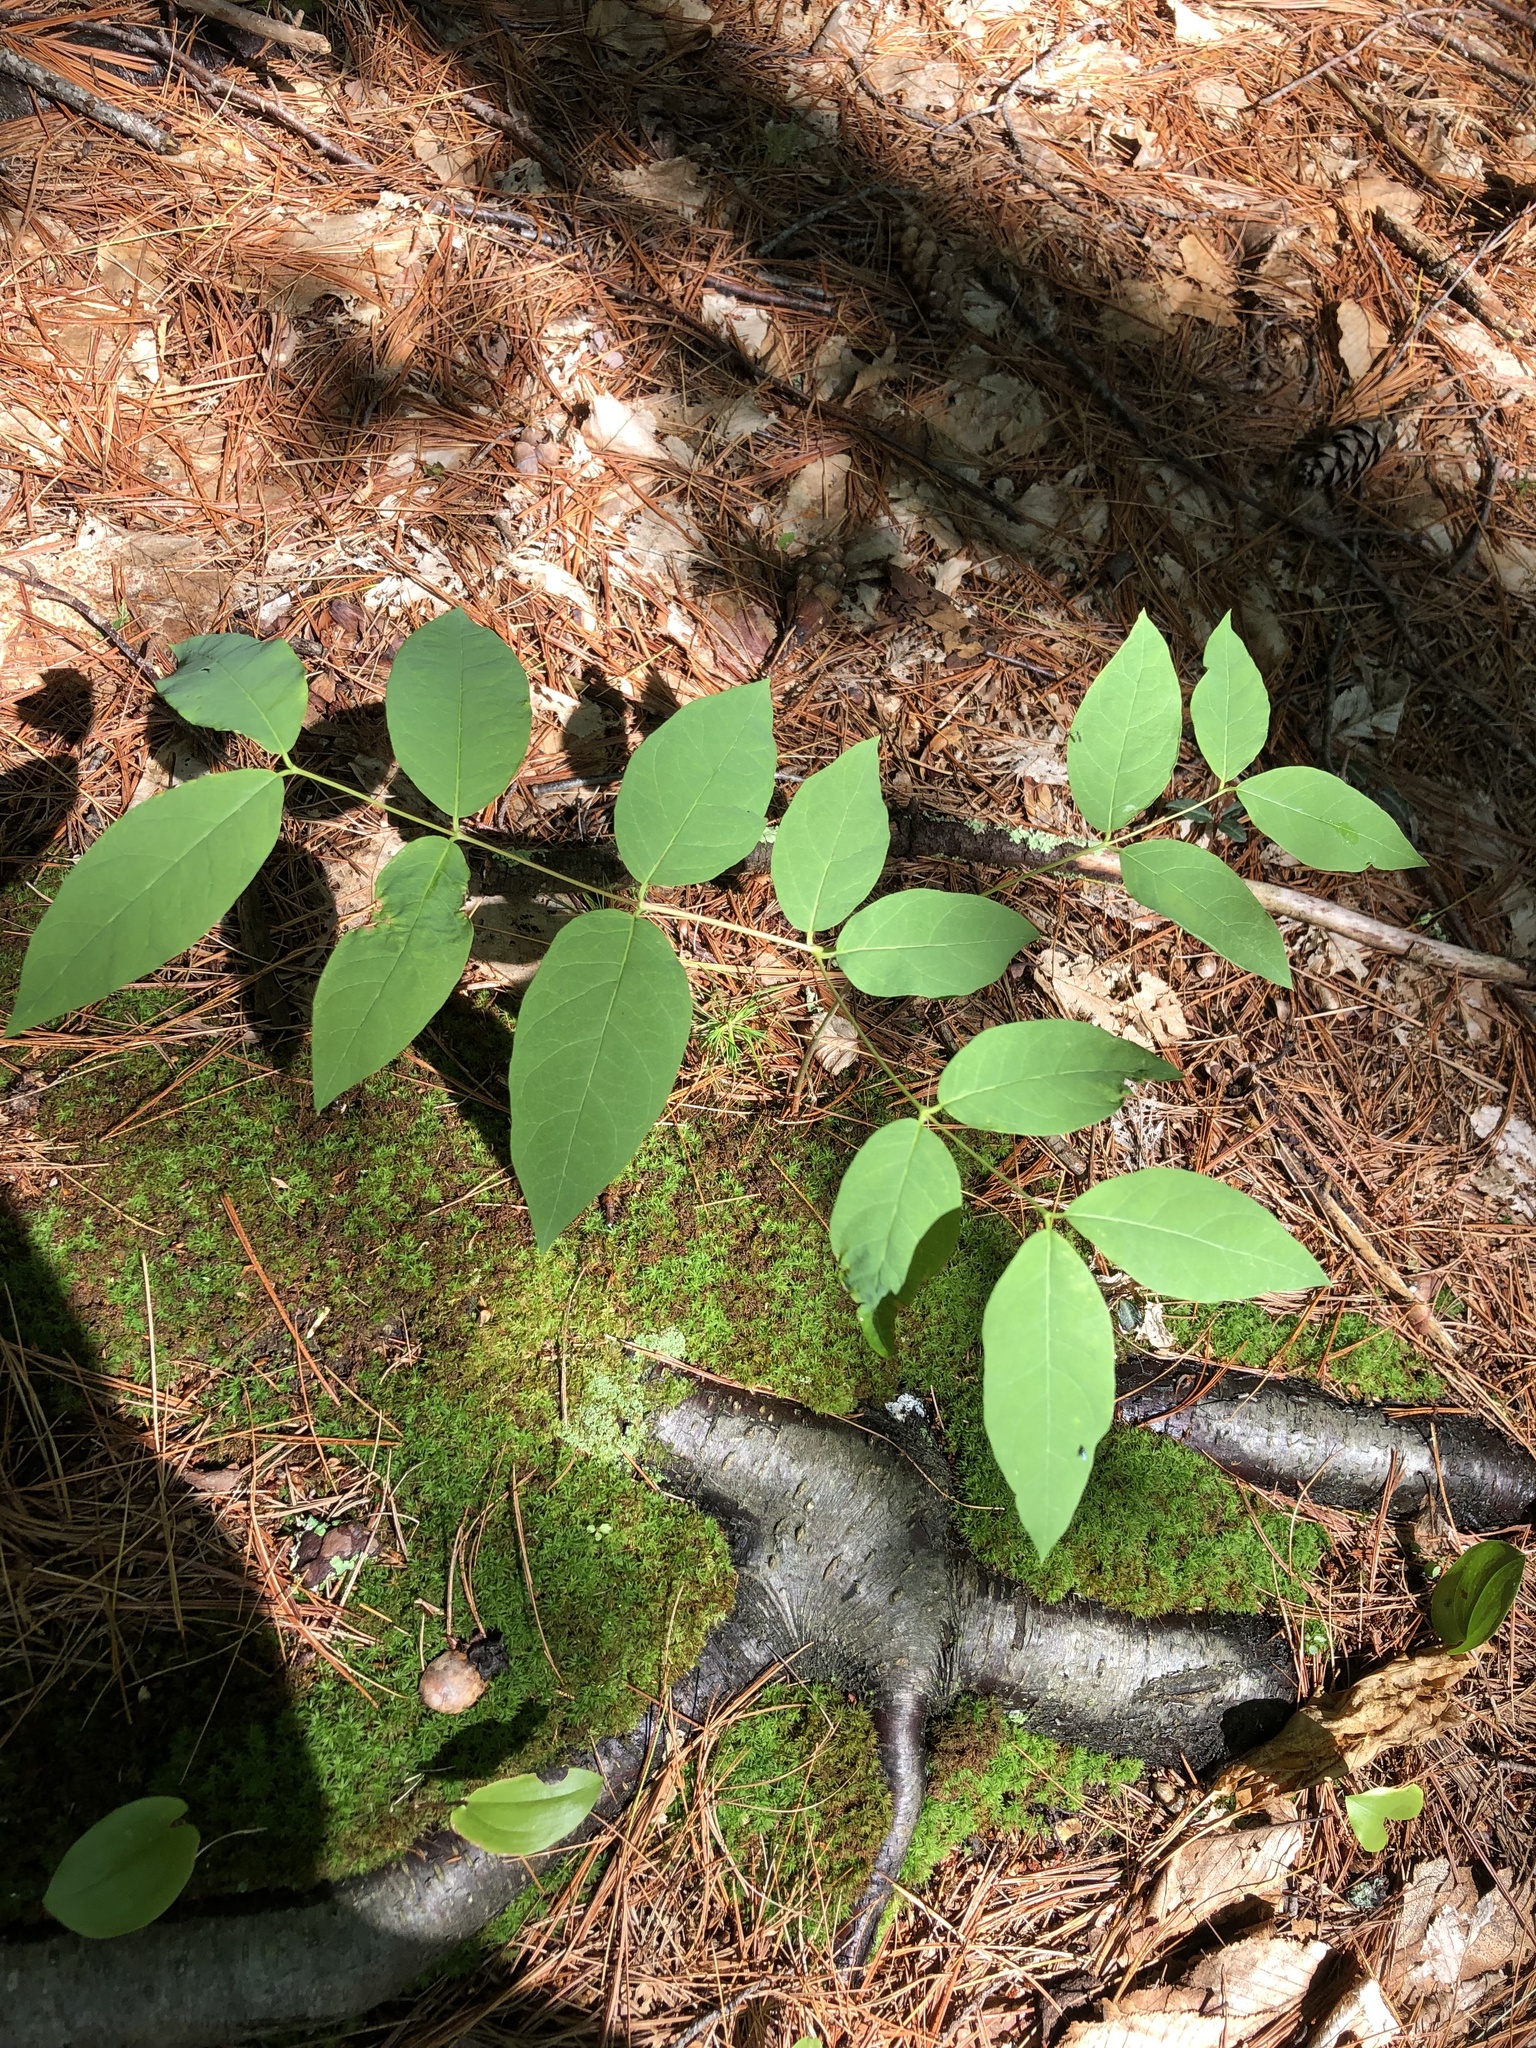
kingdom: Plantae
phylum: Tracheophyta
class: Magnoliopsida
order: Gentianales
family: Apocynaceae
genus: Apocynum
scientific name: Apocynum androsaemifolium
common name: Spreading dogbane
